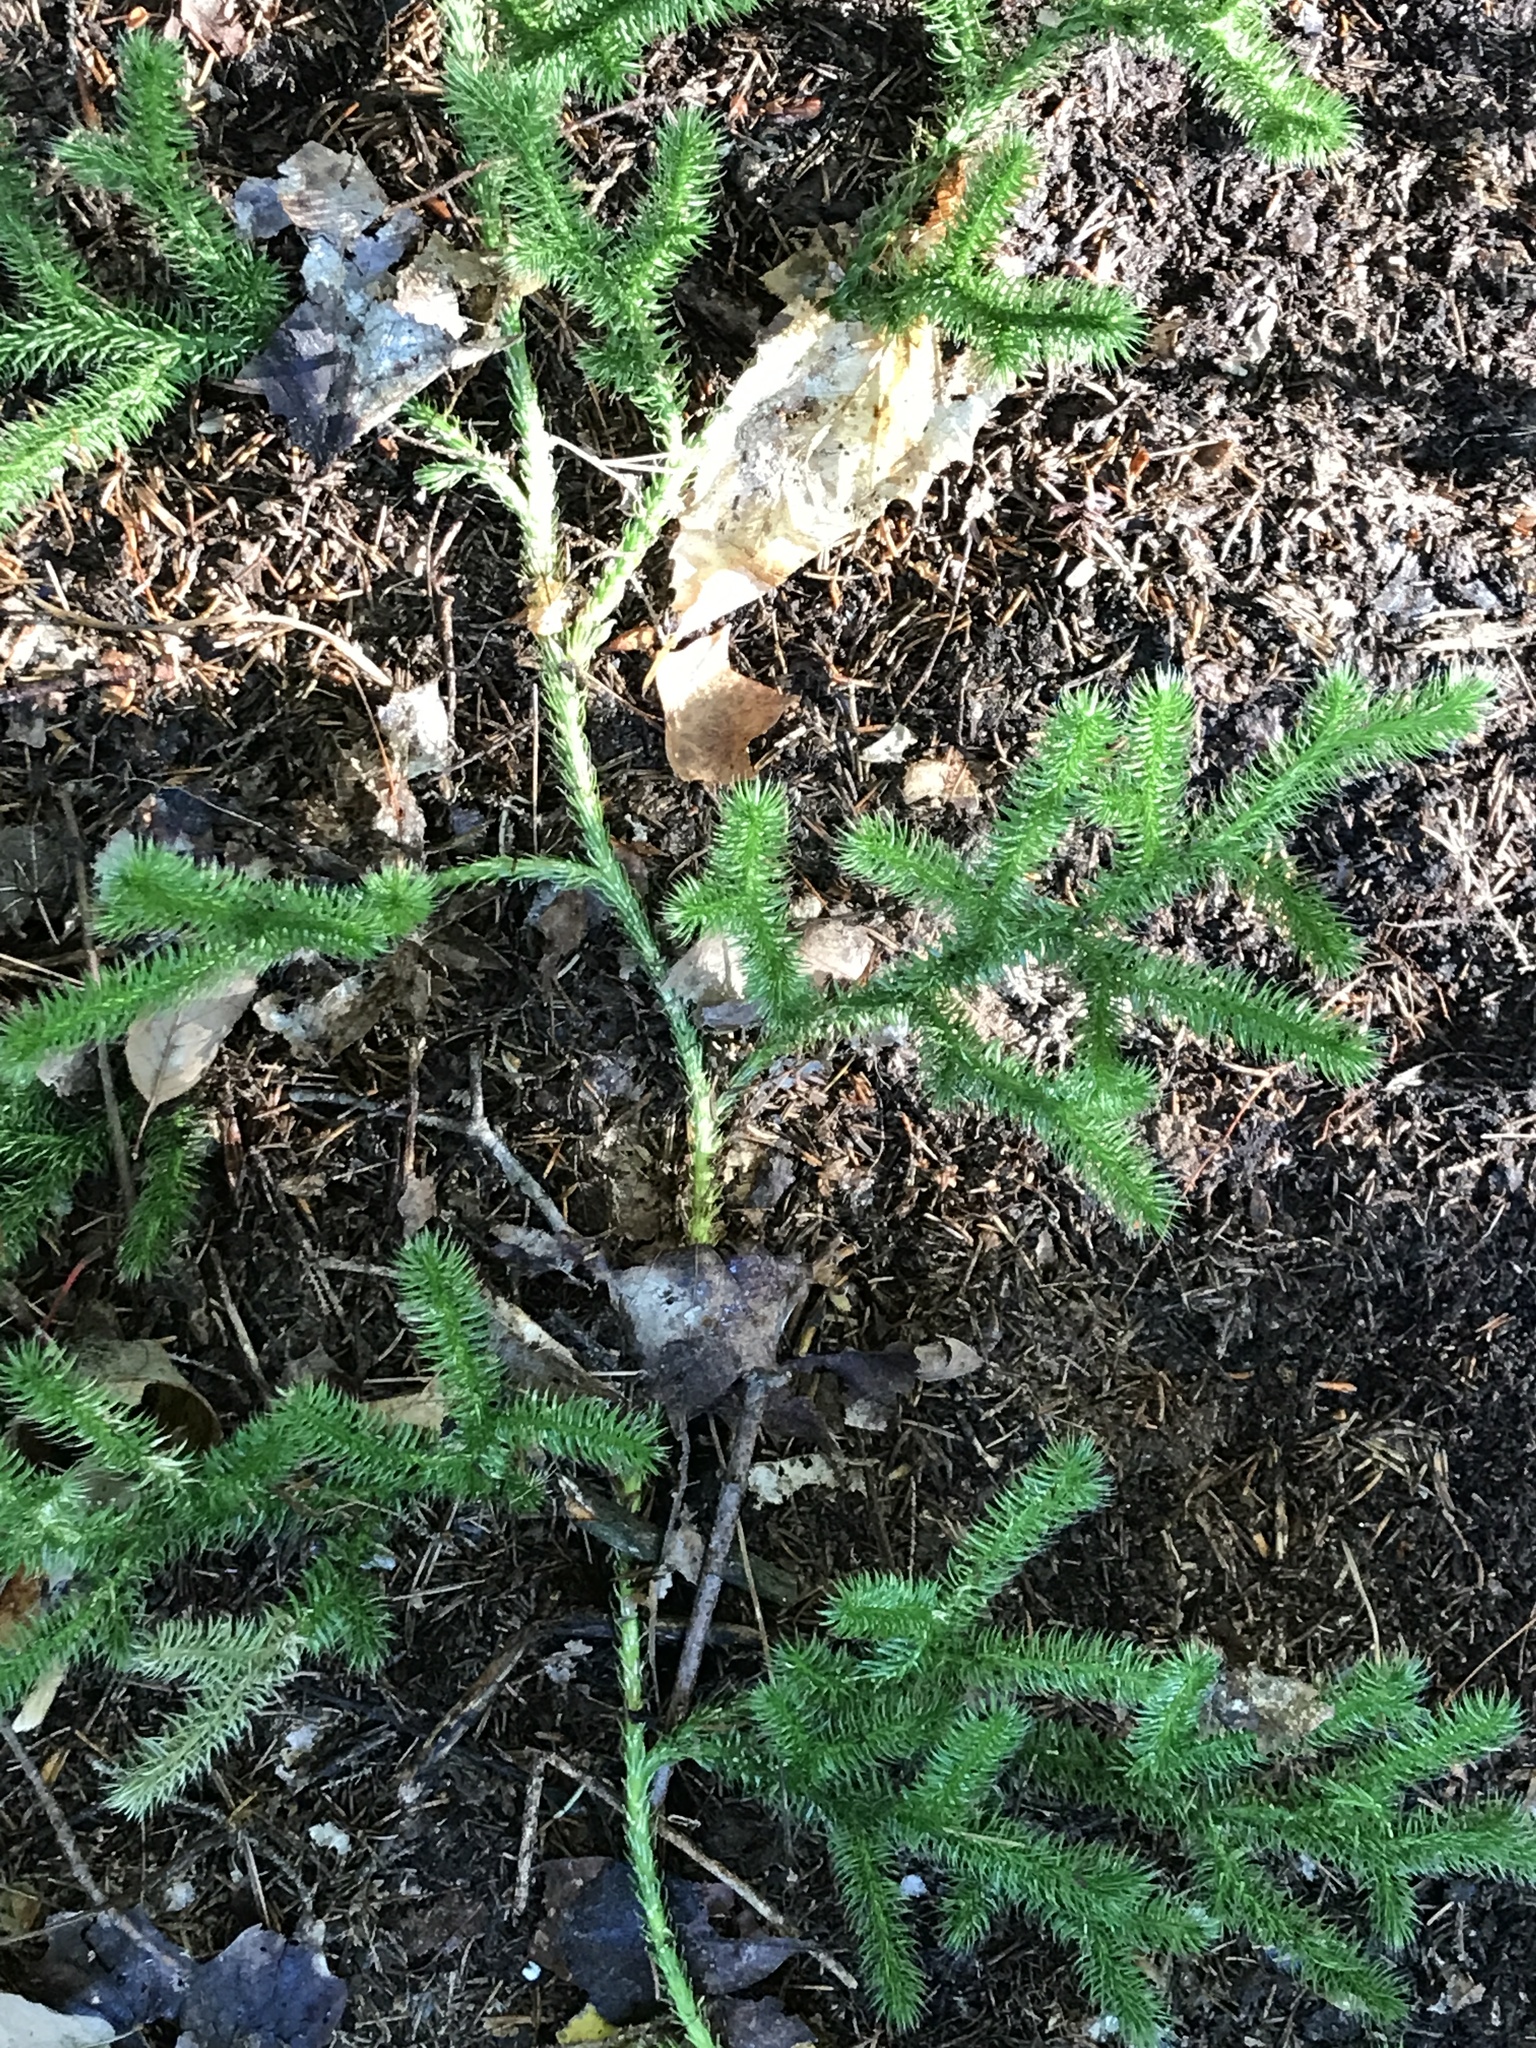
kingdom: Plantae
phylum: Tracheophyta
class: Lycopodiopsida
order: Lycopodiales
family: Lycopodiaceae
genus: Lycopodium
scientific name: Lycopodium clavatum
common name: Stag's-horn clubmoss
